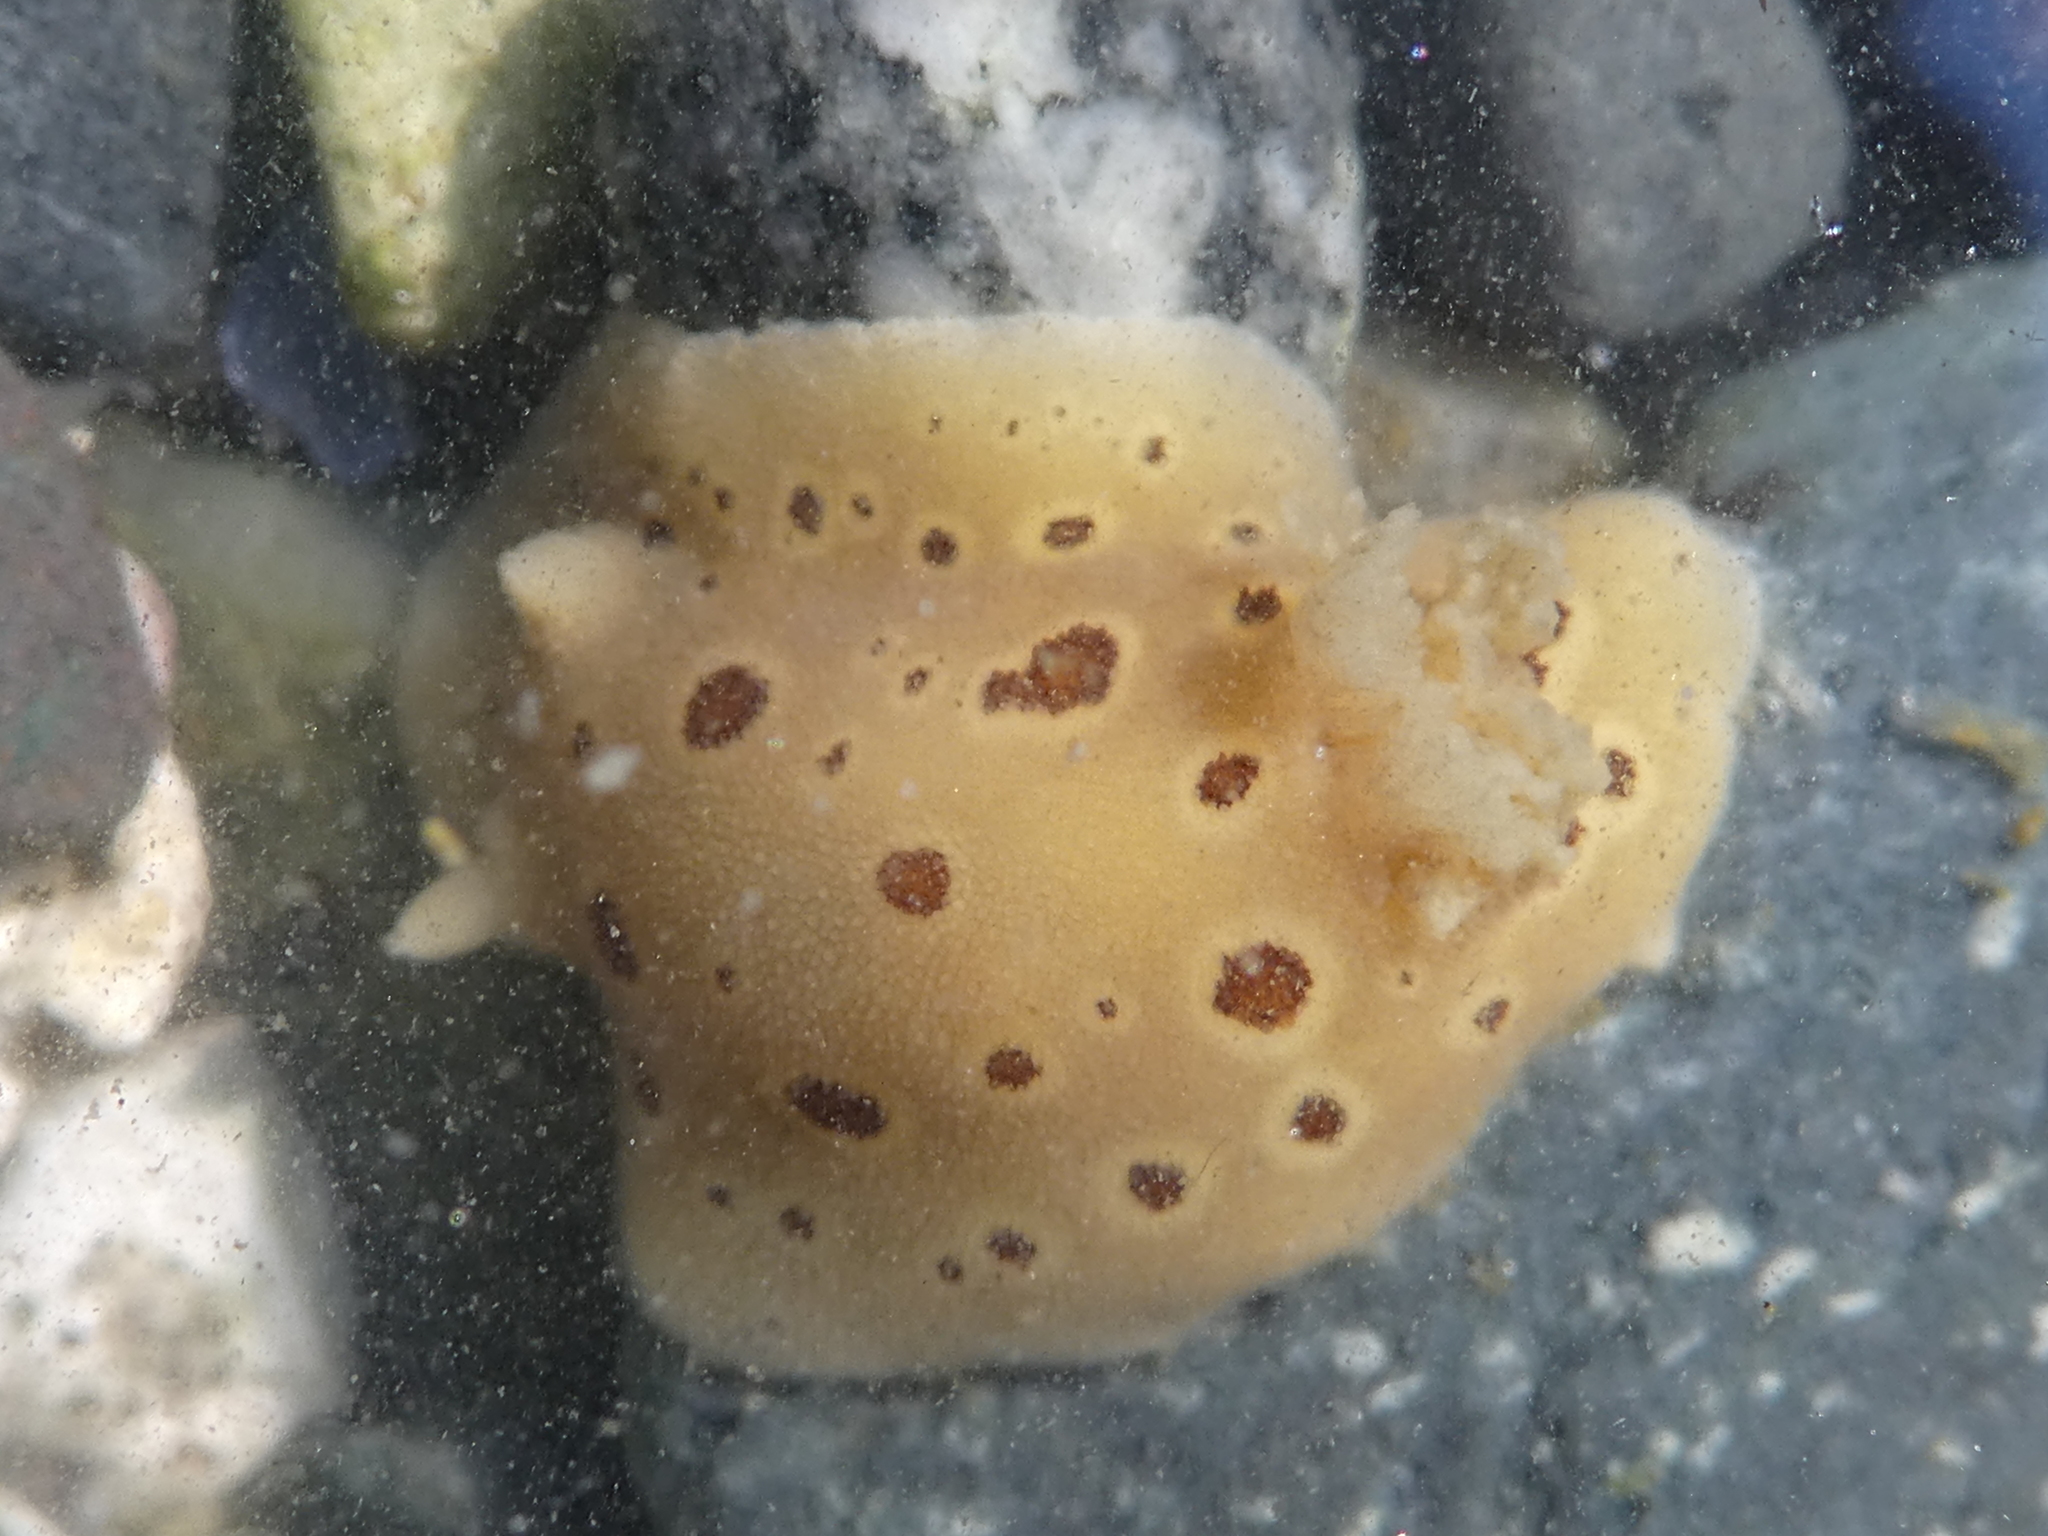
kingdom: Animalia
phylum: Mollusca
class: Gastropoda
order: Nudibranchia
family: Discodorididae
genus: Diaulula
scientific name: Diaulula odonoghuei
